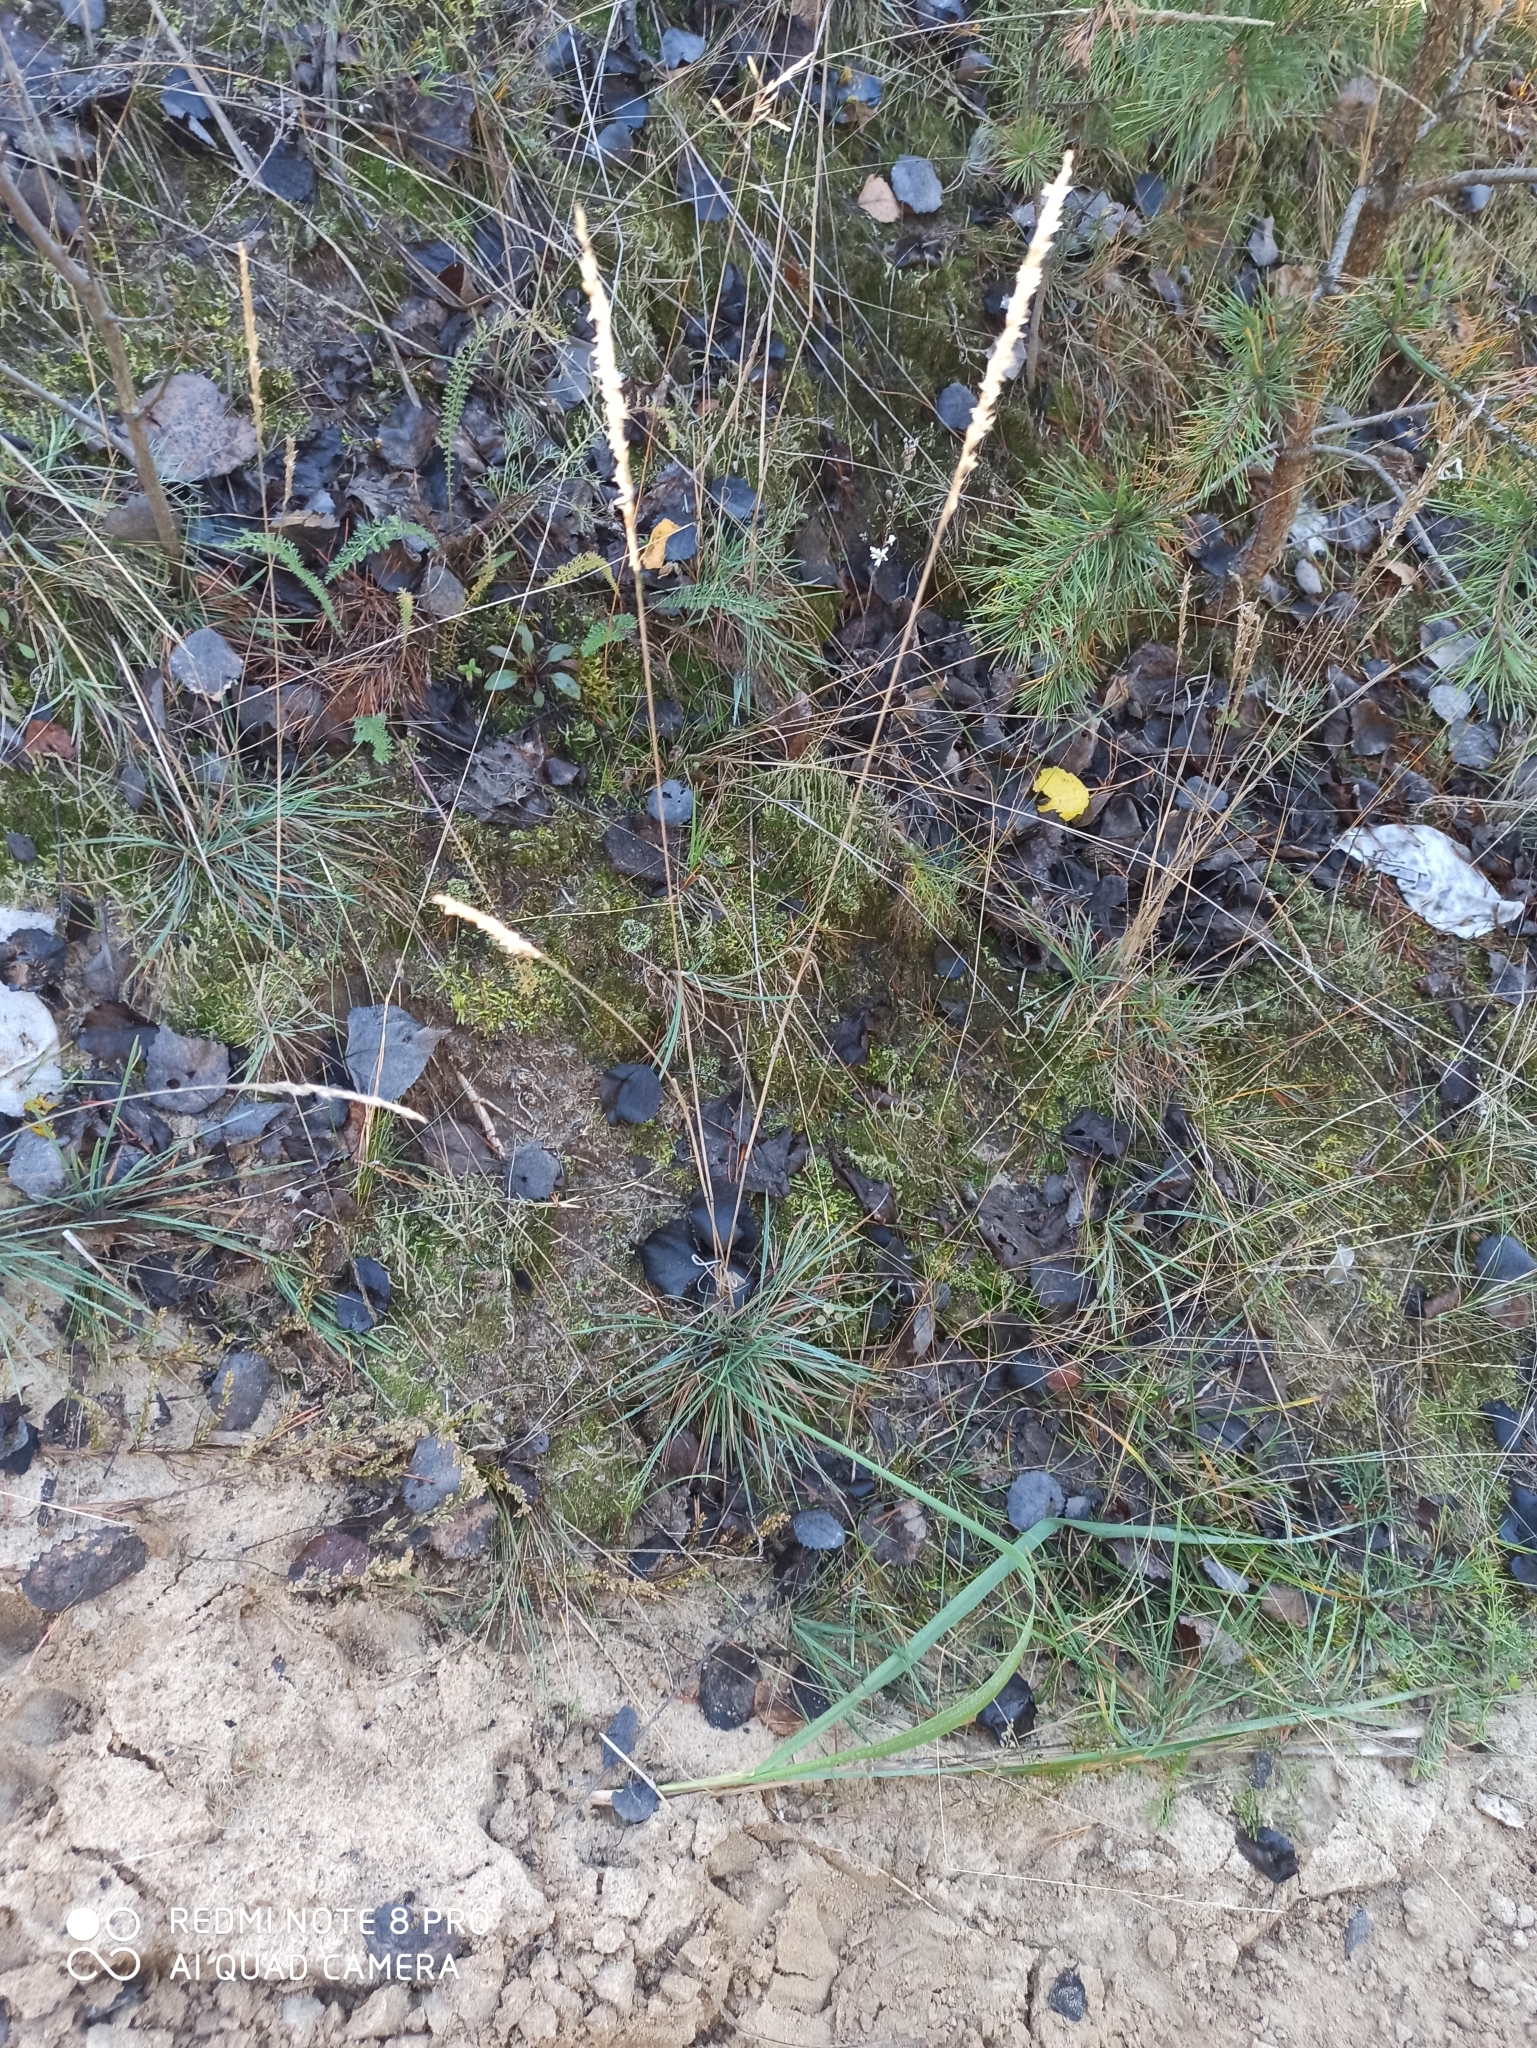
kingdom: Plantae
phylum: Tracheophyta
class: Liliopsida
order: Poales
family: Poaceae
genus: Koeleria
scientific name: Koeleria glauca
